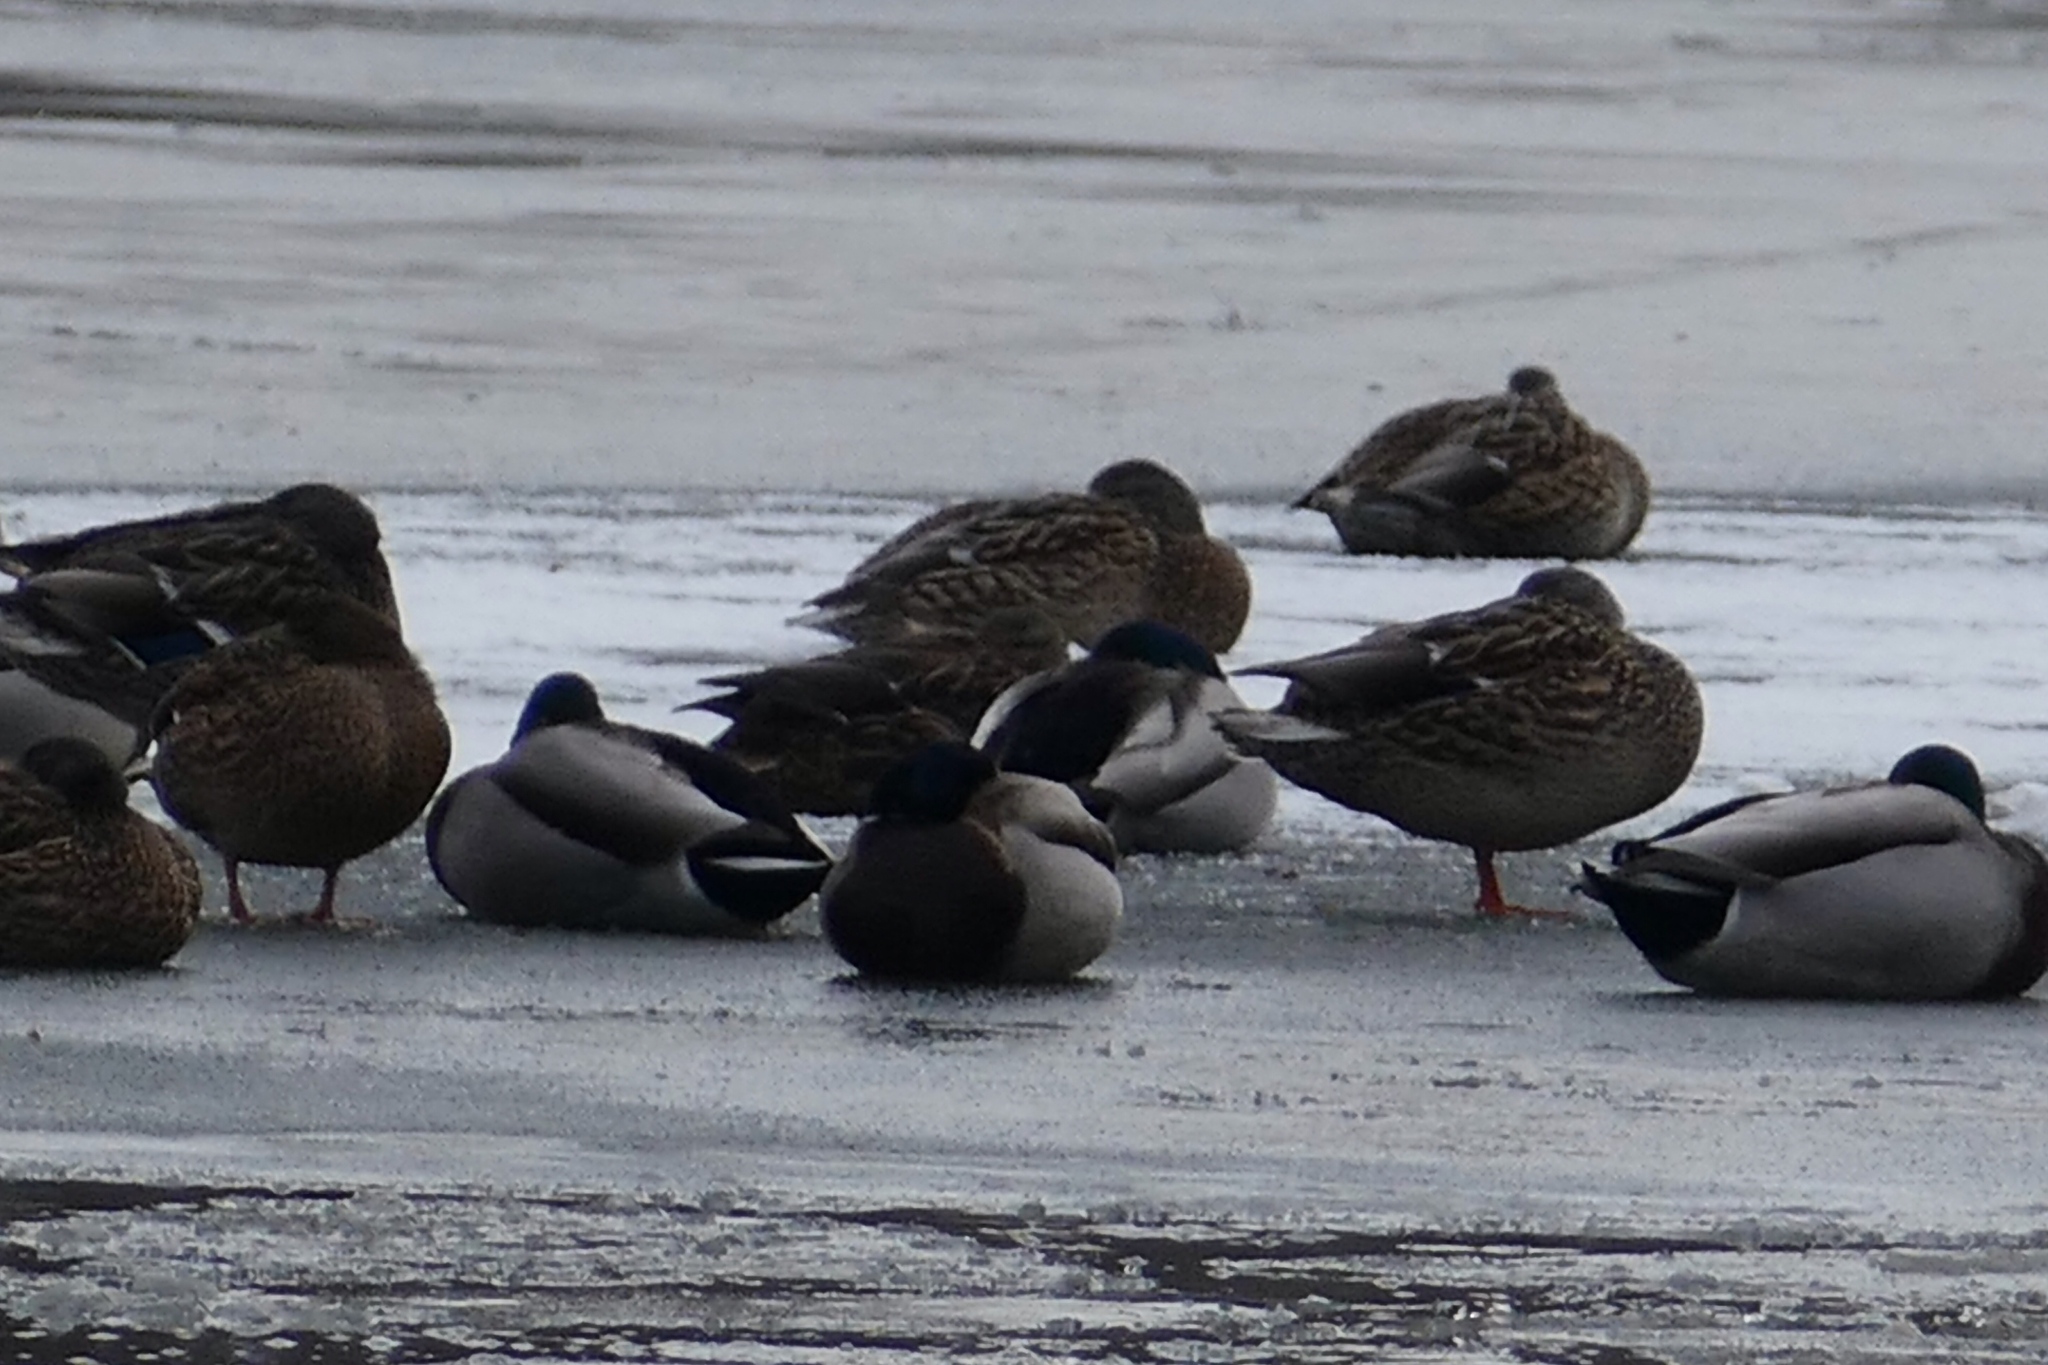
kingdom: Animalia
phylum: Chordata
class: Aves
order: Anseriformes
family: Anatidae
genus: Anas
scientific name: Anas platyrhynchos
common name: Mallard
